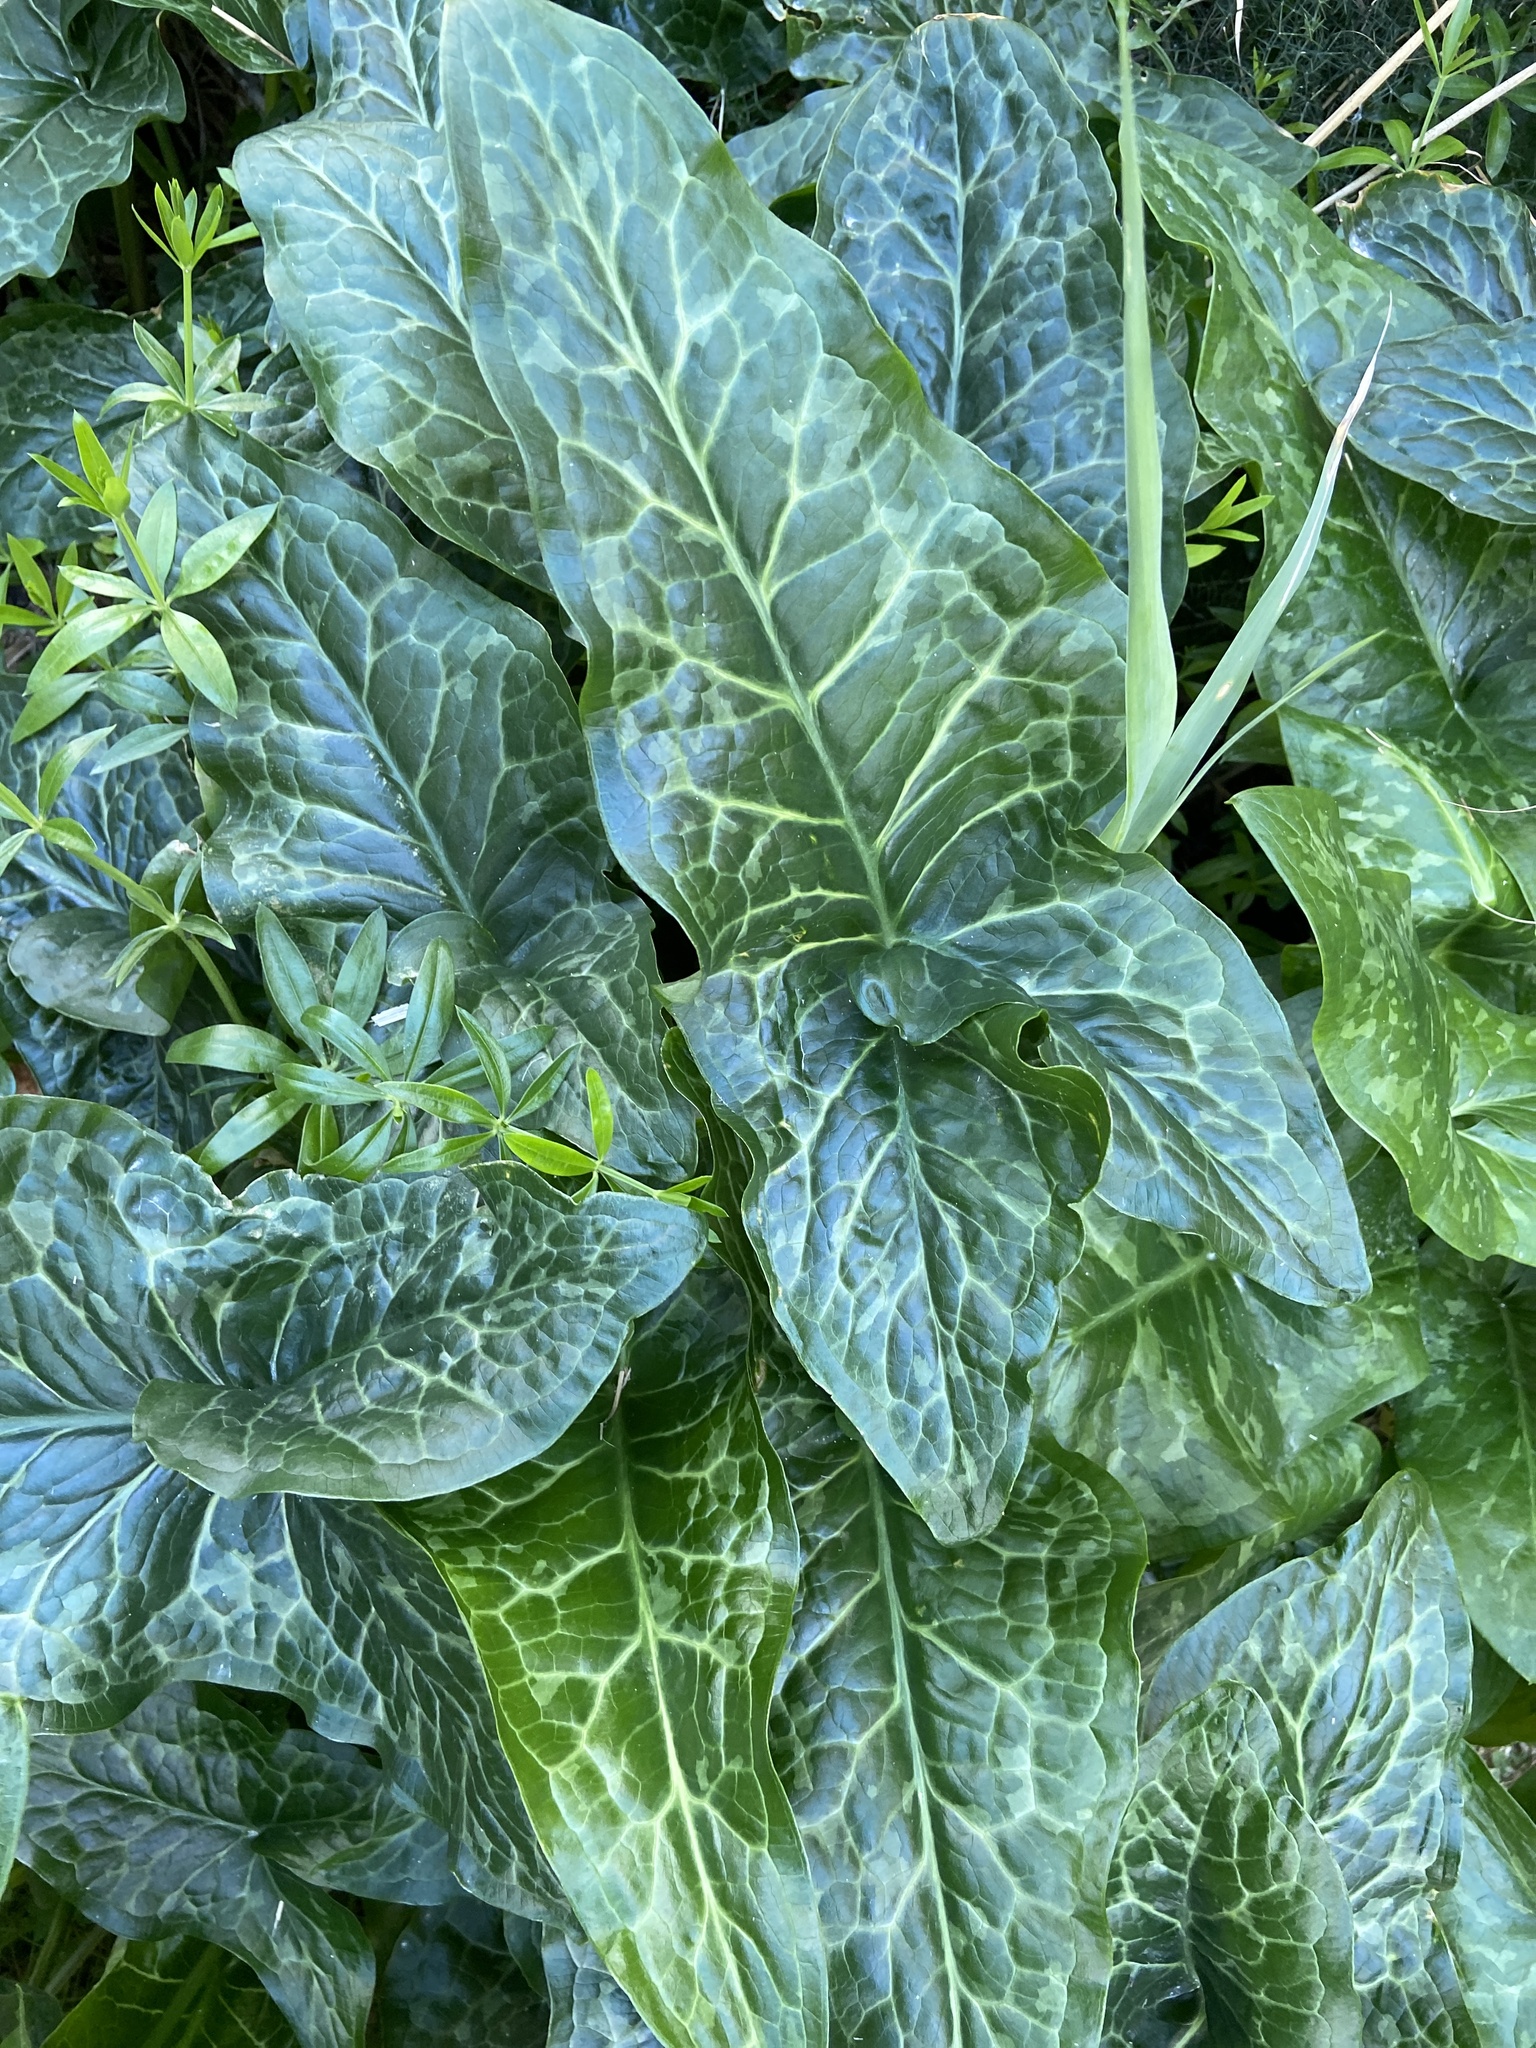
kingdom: Plantae
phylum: Tracheophyta
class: Liliopsida
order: Alismatales
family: Araceae
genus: Arum
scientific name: Arum italicum
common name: Italian lords-and-ladies
